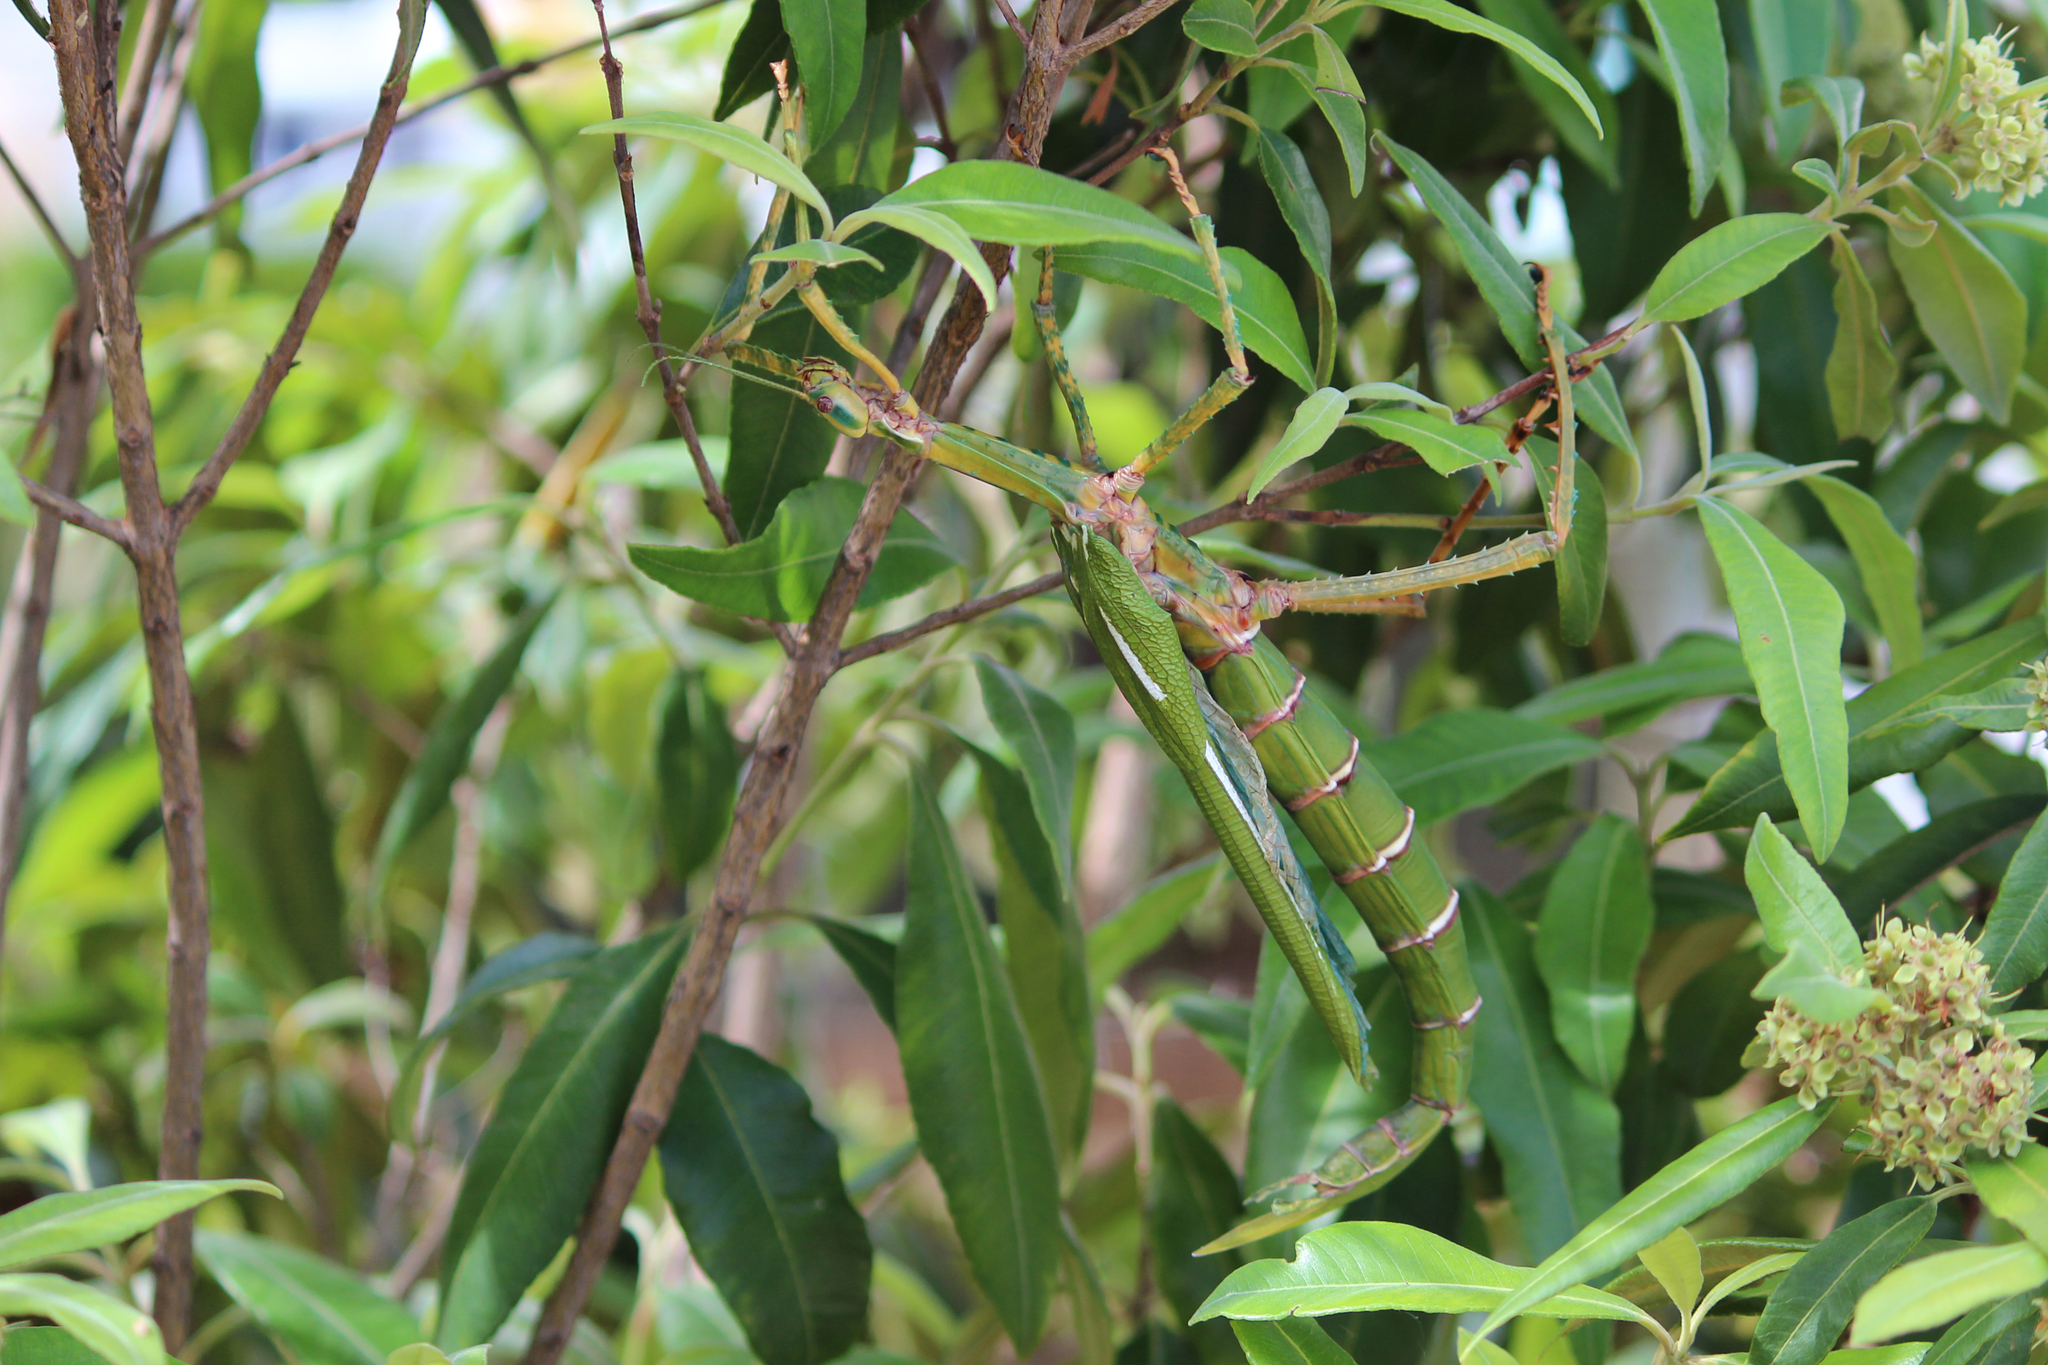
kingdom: Animalia
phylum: Arthropoda
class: Insecta
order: Phasmida
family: Phasmatidae
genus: Eurycnema
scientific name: Eurycnema goliath
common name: Goliath stick insect
